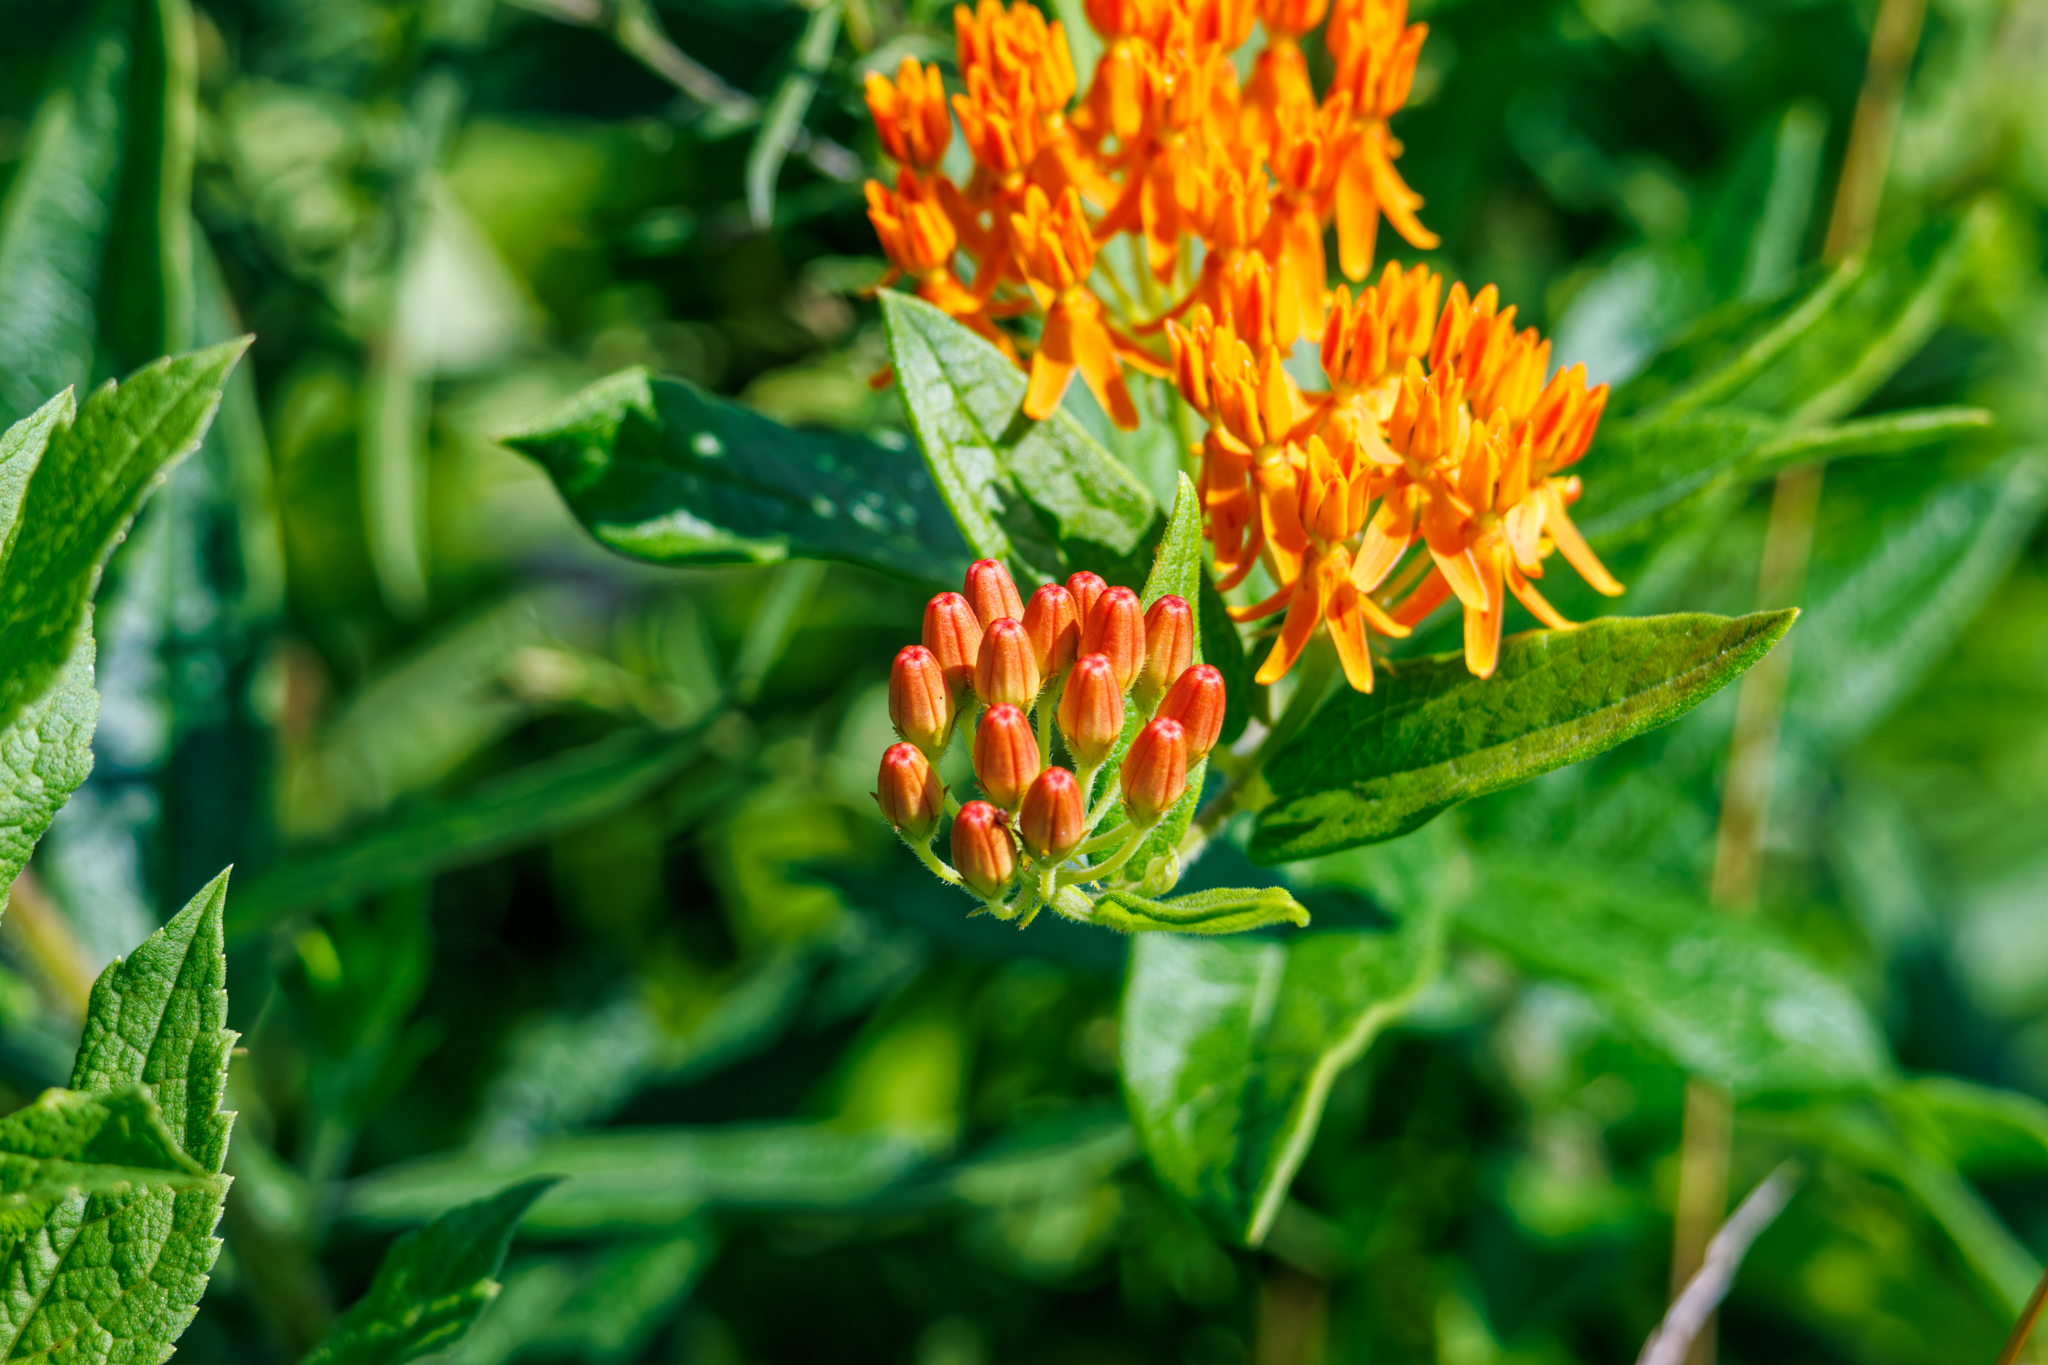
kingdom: Plantae
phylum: Tracheophyta
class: Magnoliopsida
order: Gentianales
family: Apocynaceae
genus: Asclepias
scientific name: Asclepias tuberosa
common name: Butterfly milkweed
